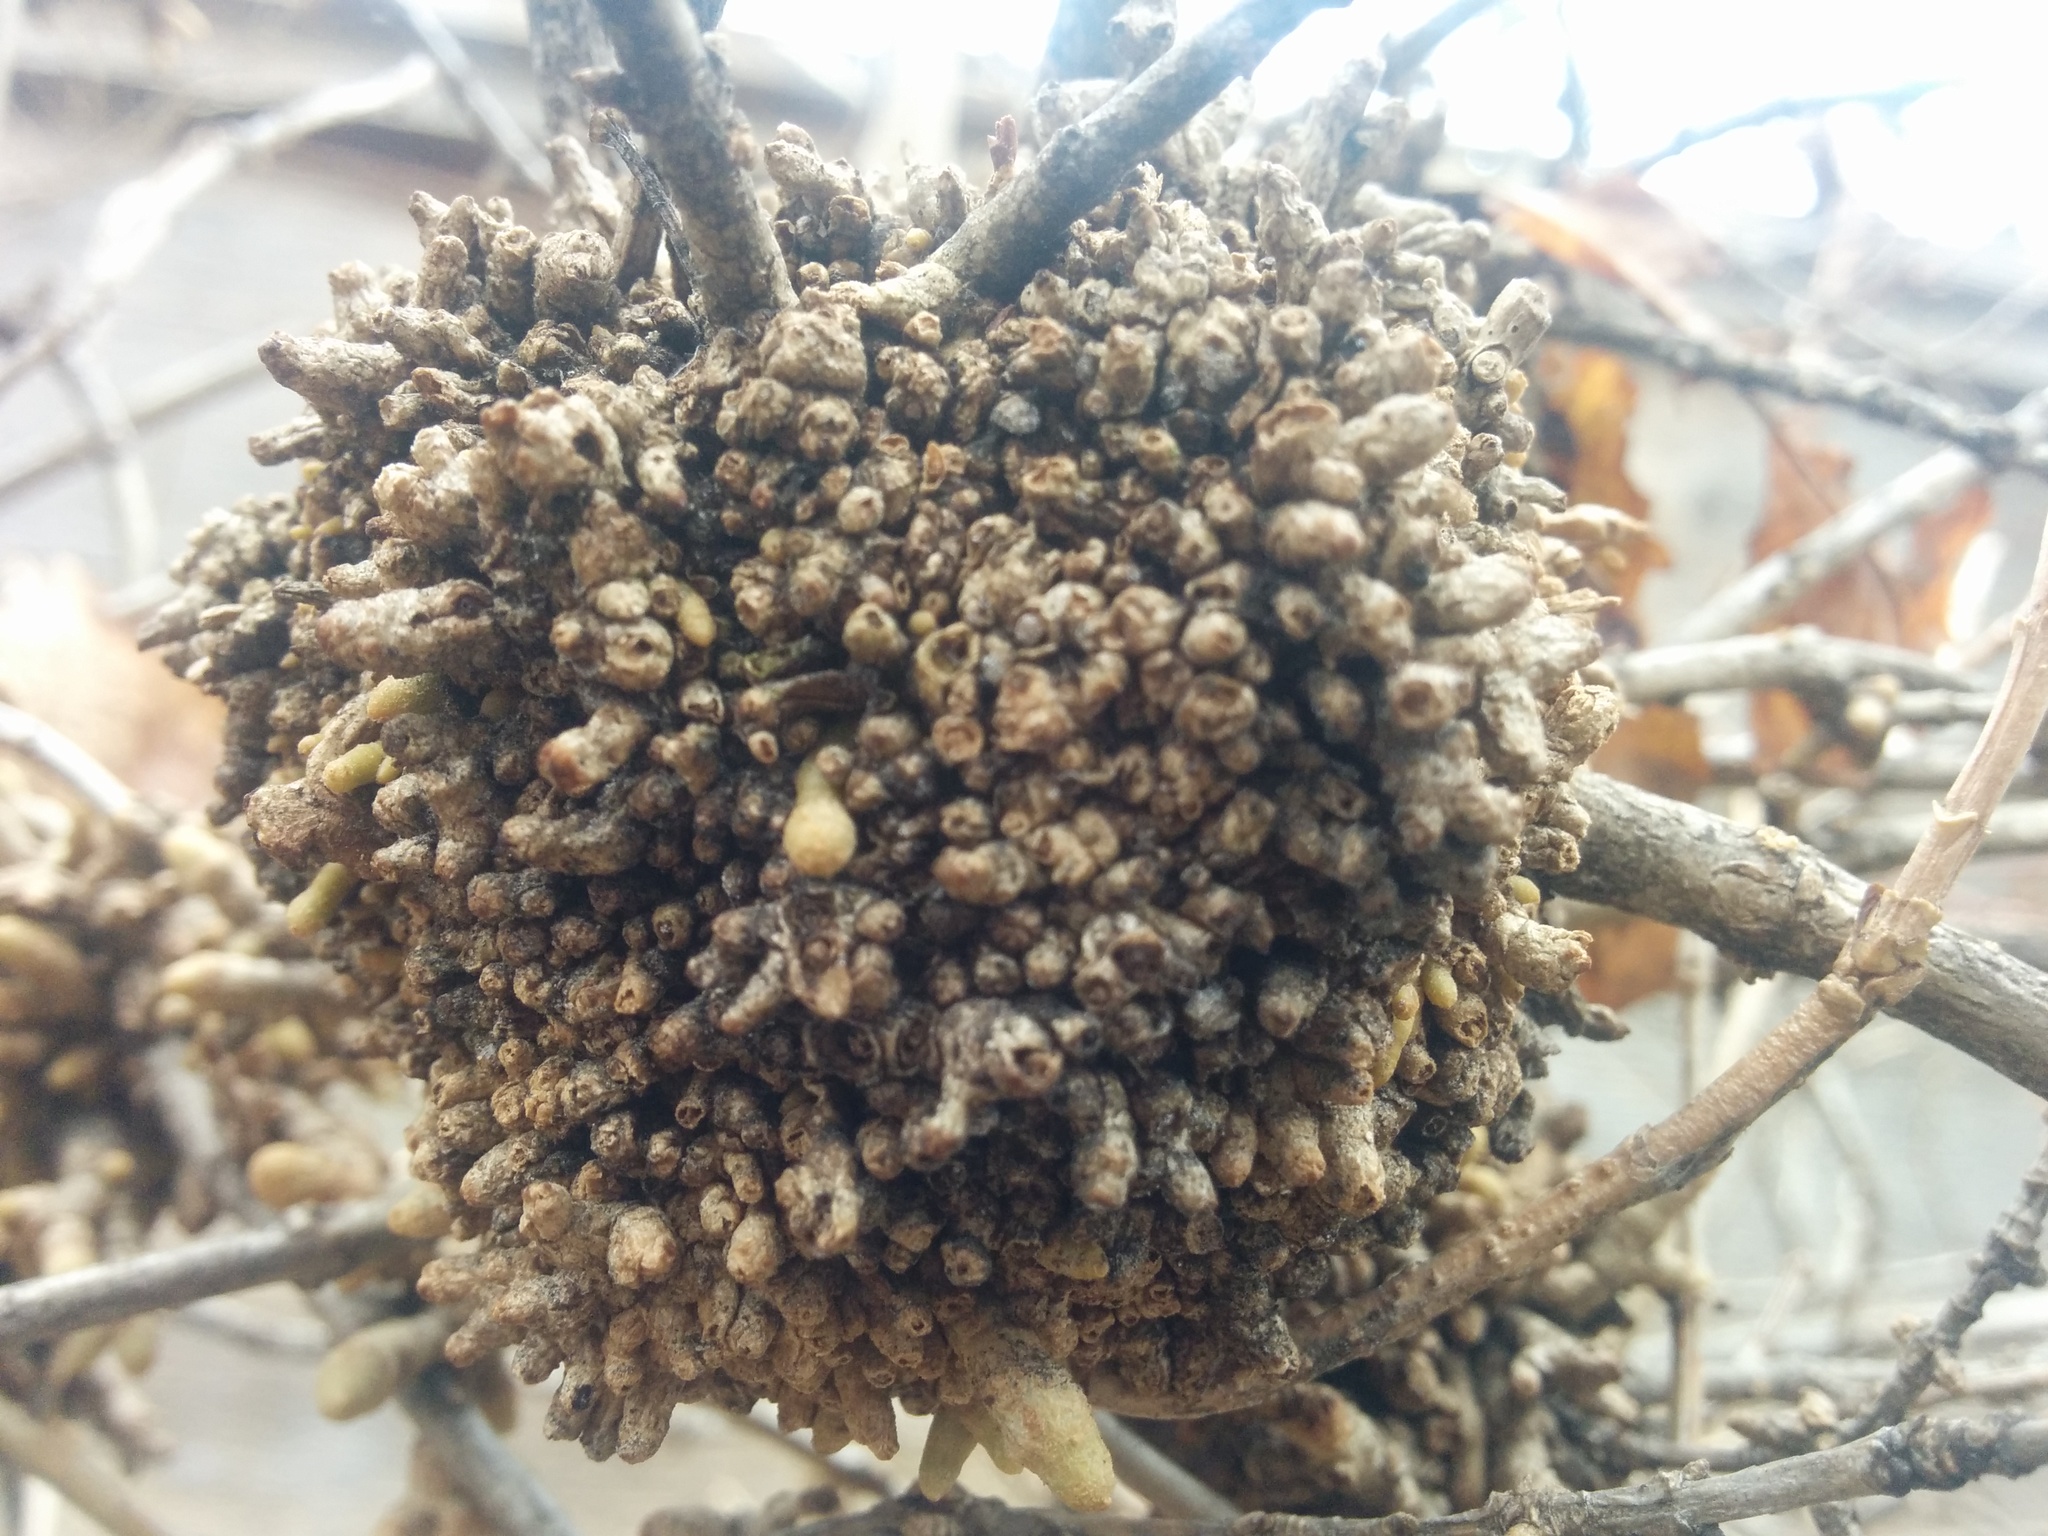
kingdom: Bacteria
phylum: Proteobacteria
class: Gammaproteobacteria
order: Pseudomonadales
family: Pseudomonadaceae
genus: Pseudomonas
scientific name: Pseudomonas
